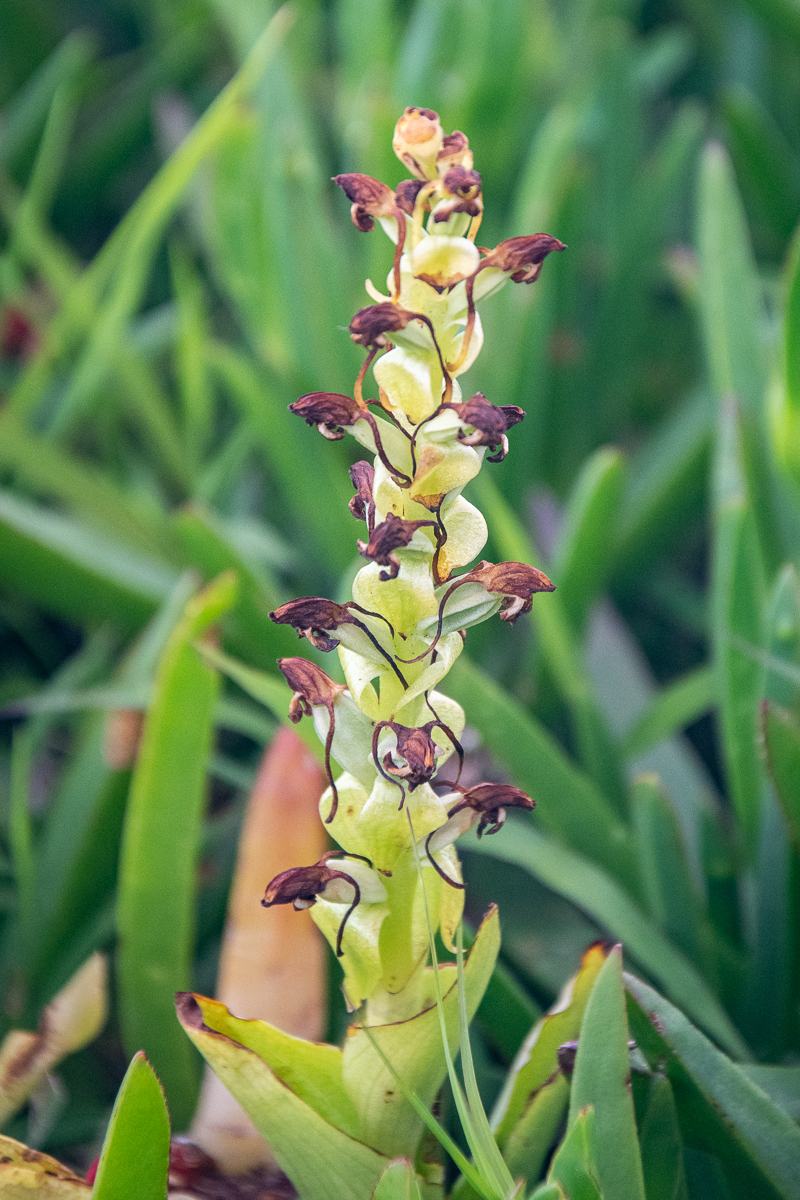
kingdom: Plantae
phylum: Tracheophyta
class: Liliopsida
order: Asparagales
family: Orchidaceae
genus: Satyrium
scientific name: Satyrium odorum
